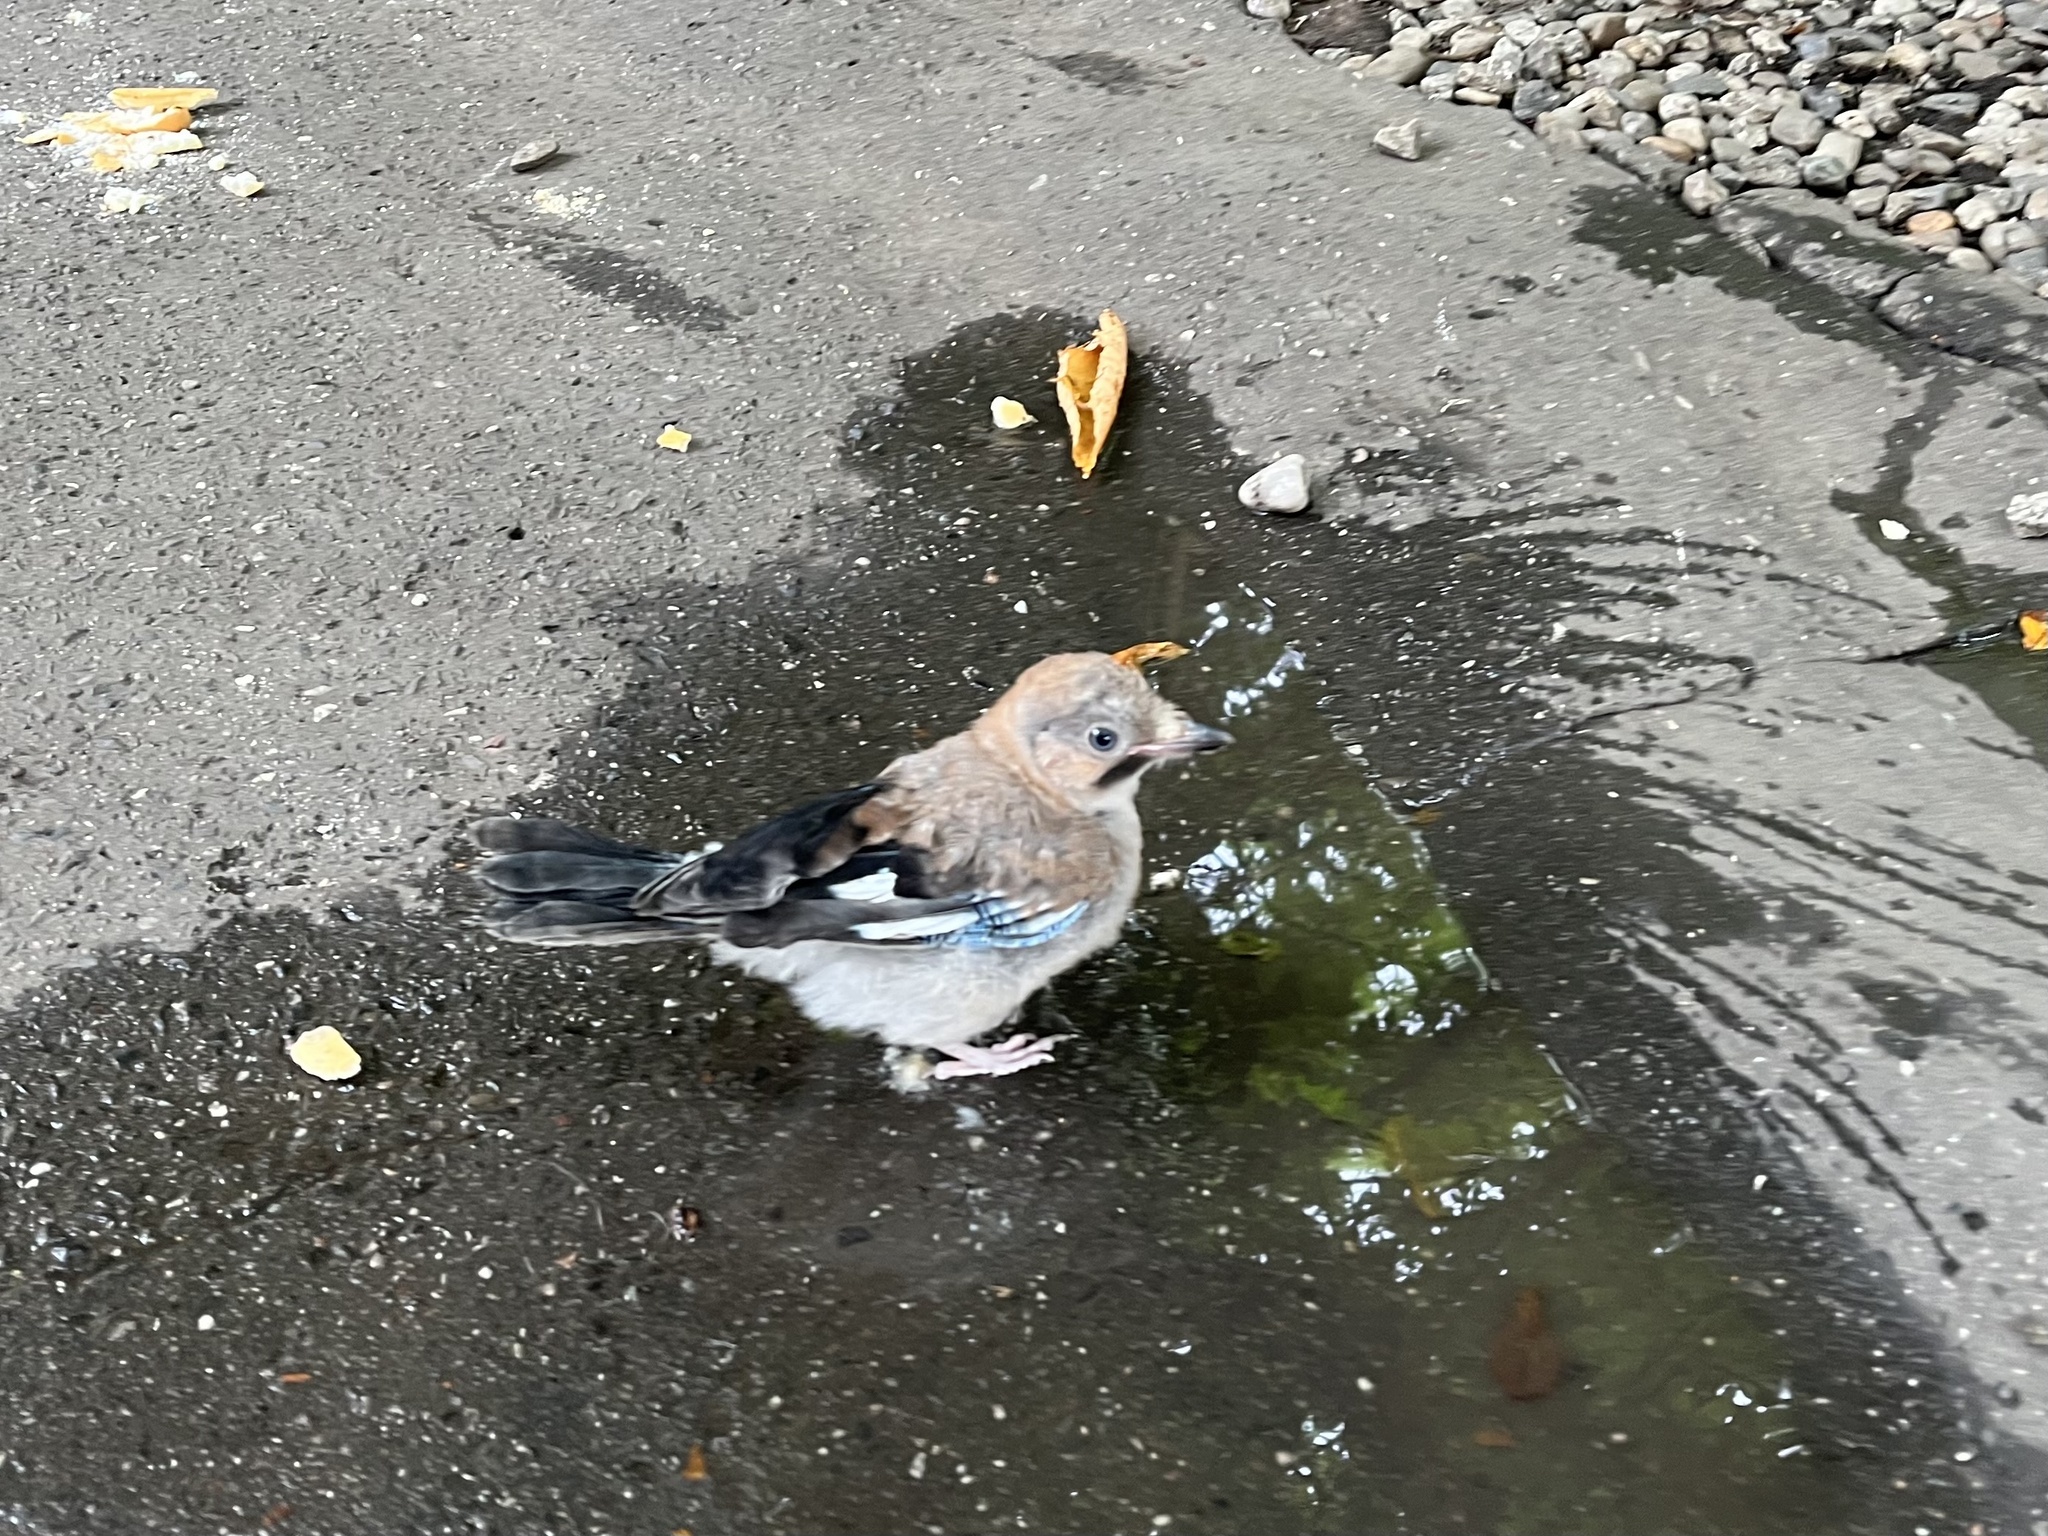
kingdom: Animalia
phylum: Chordata
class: Aves
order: Passeriformes
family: Corvidae
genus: Garrulus
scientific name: Garrulus glandarius
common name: Eurasian jay
